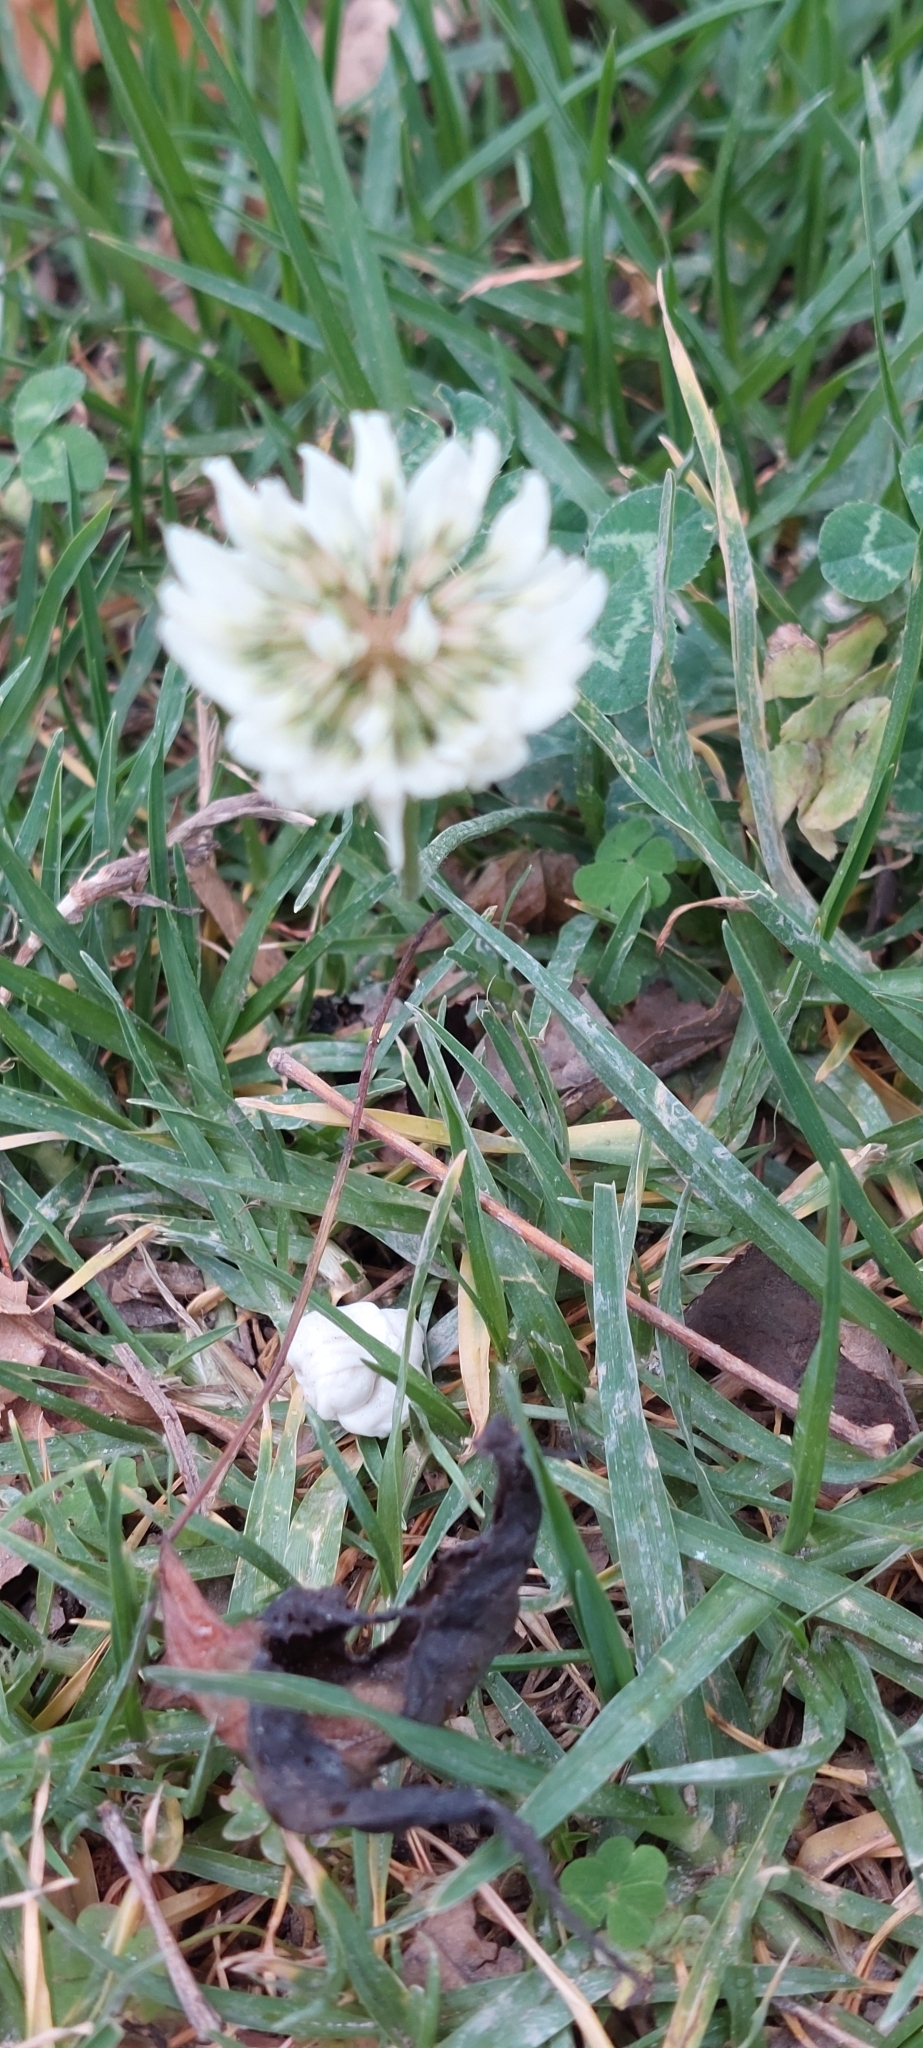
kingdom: Plantae
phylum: Tracheophyta
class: Magnoliopsida
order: Fabales
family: Fabaceae
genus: Trifolium
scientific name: Trifolium repens
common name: White clover
